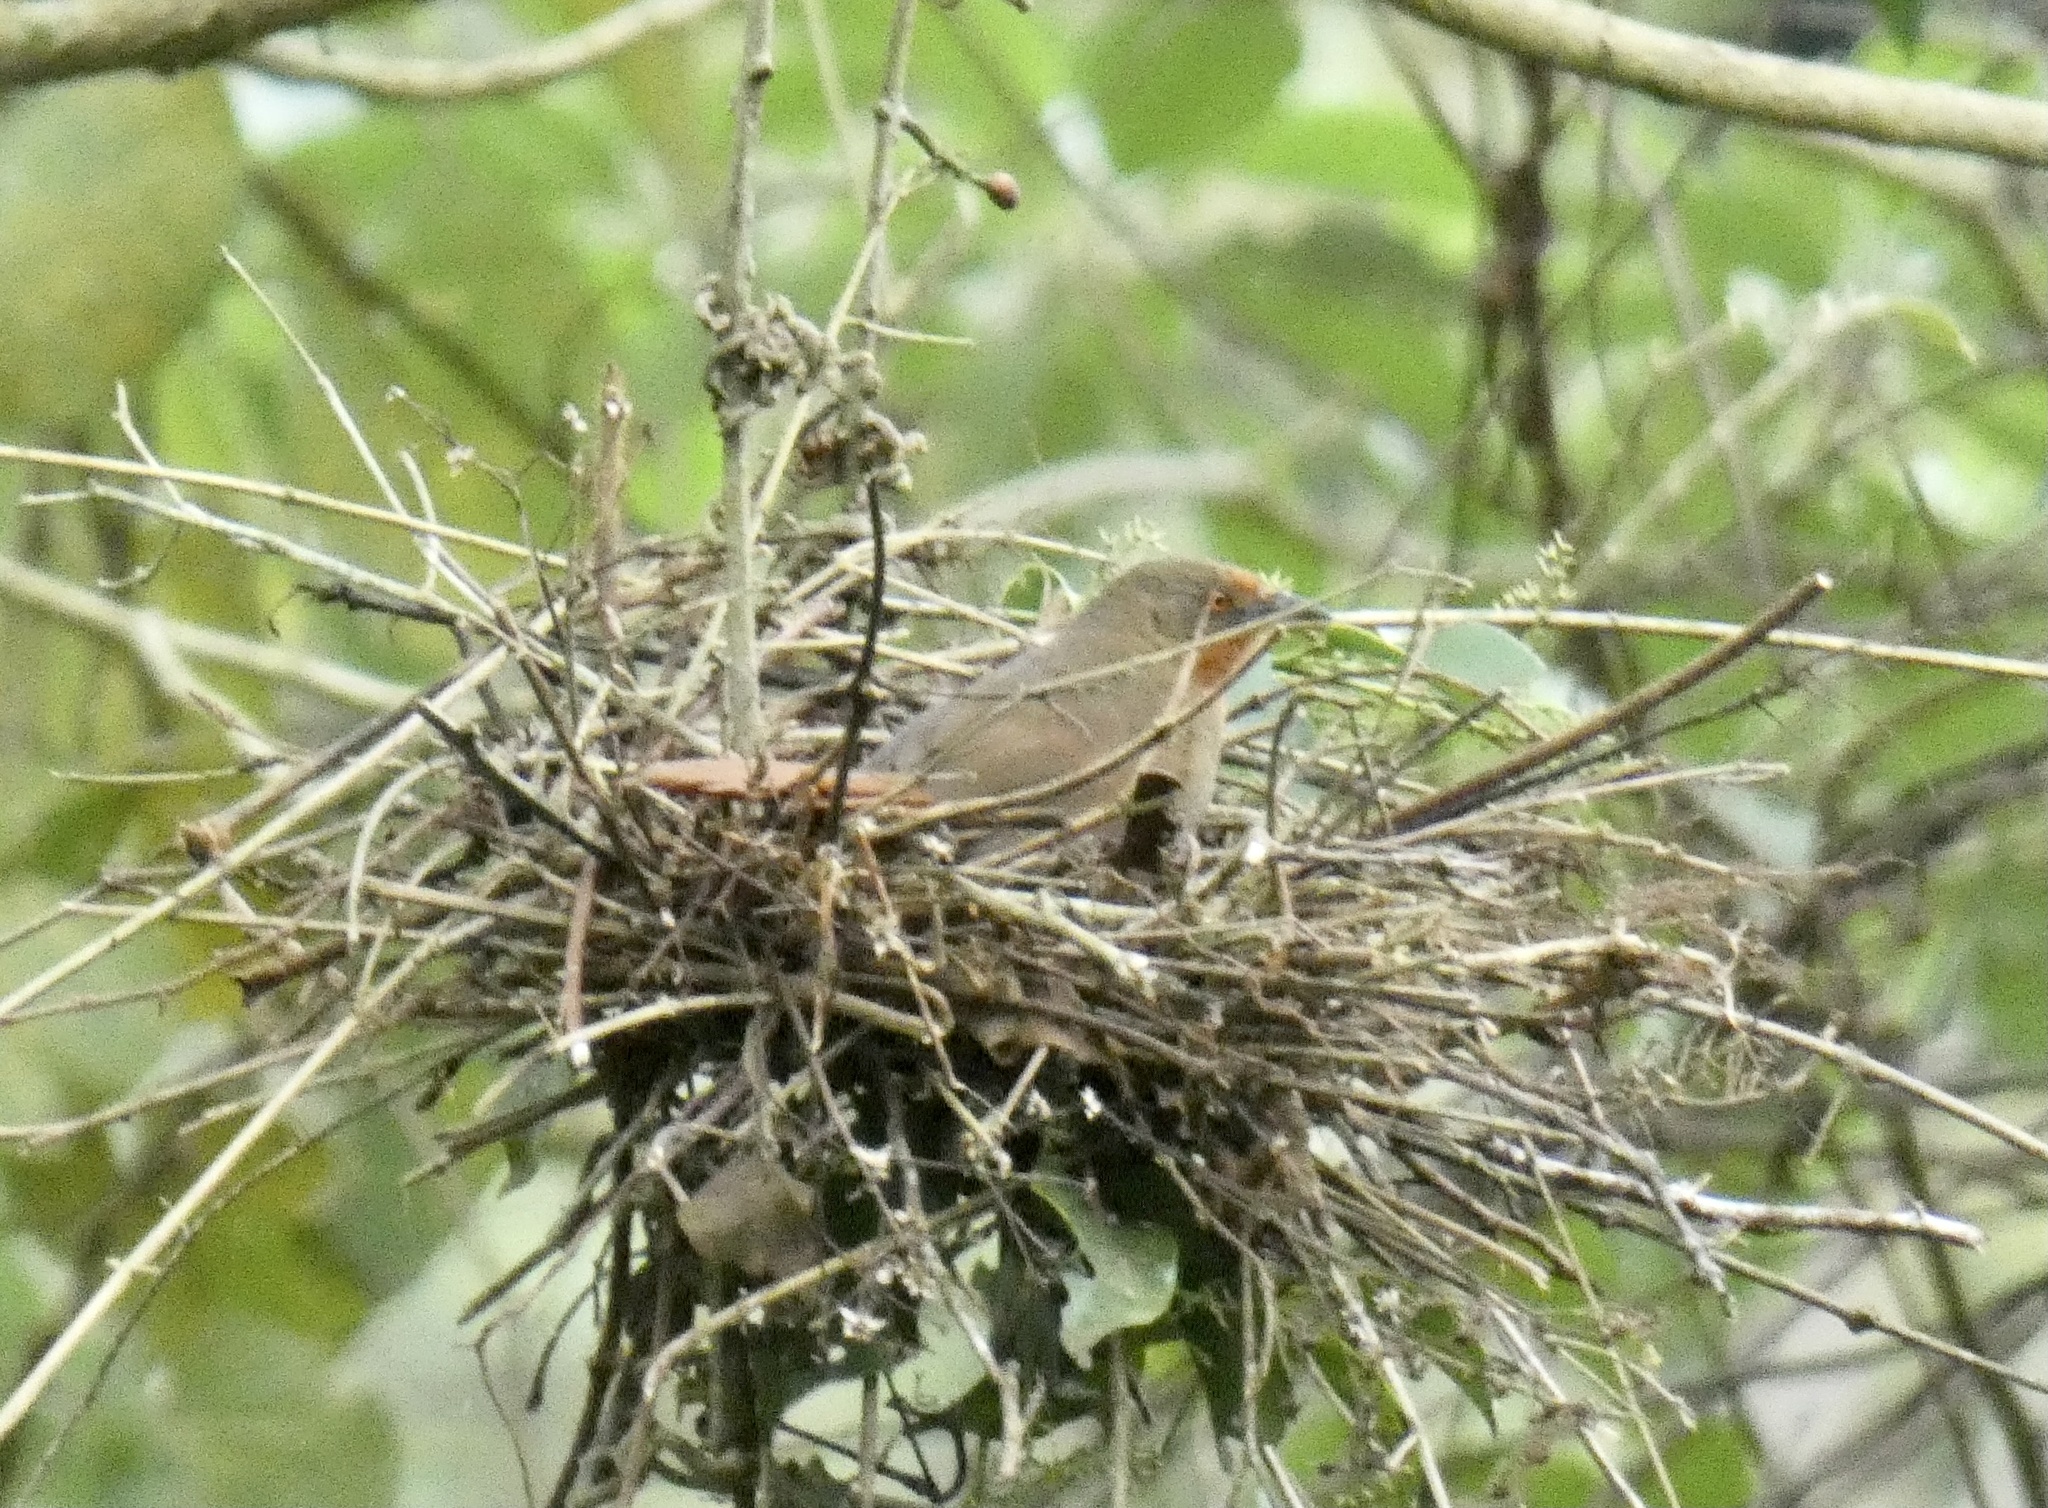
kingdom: Animalia
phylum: Chordata
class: Aves
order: Passeriformes
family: Furnariidae
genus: Phacellodomus
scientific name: Phacellodomus erythrophthalmus
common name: Orange-eyed thornbird
